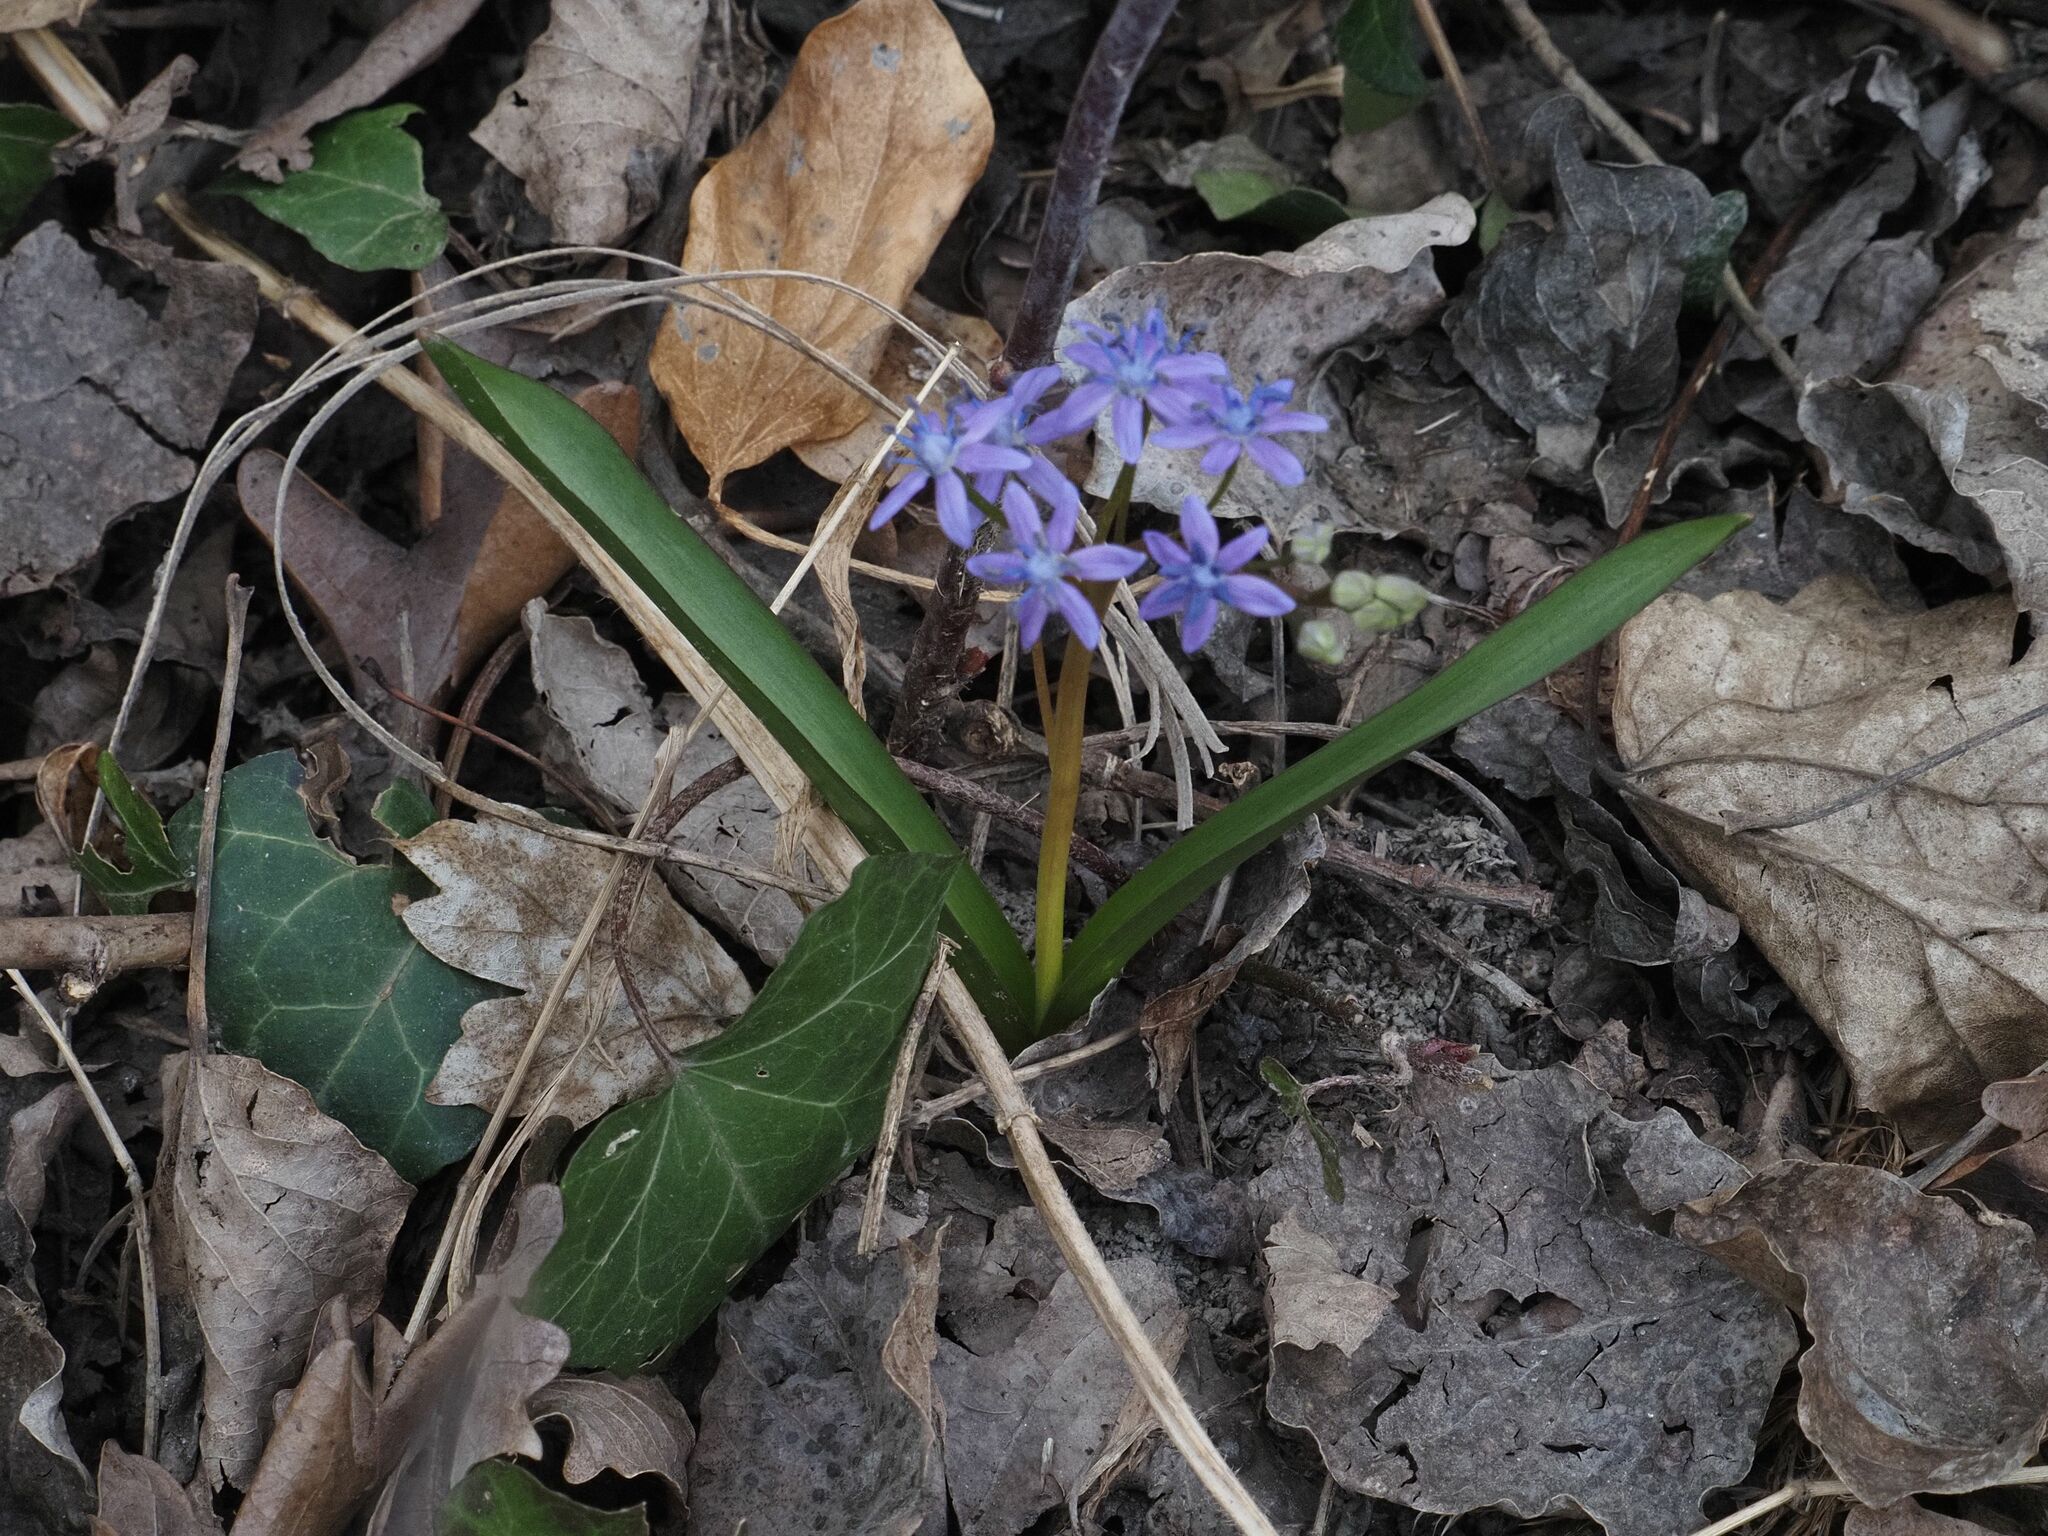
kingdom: Plantae
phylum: Tracheophyta
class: Liliopsida
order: Asparagales
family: Asparagaceae
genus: Scilla
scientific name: Scilla vindobonensis
